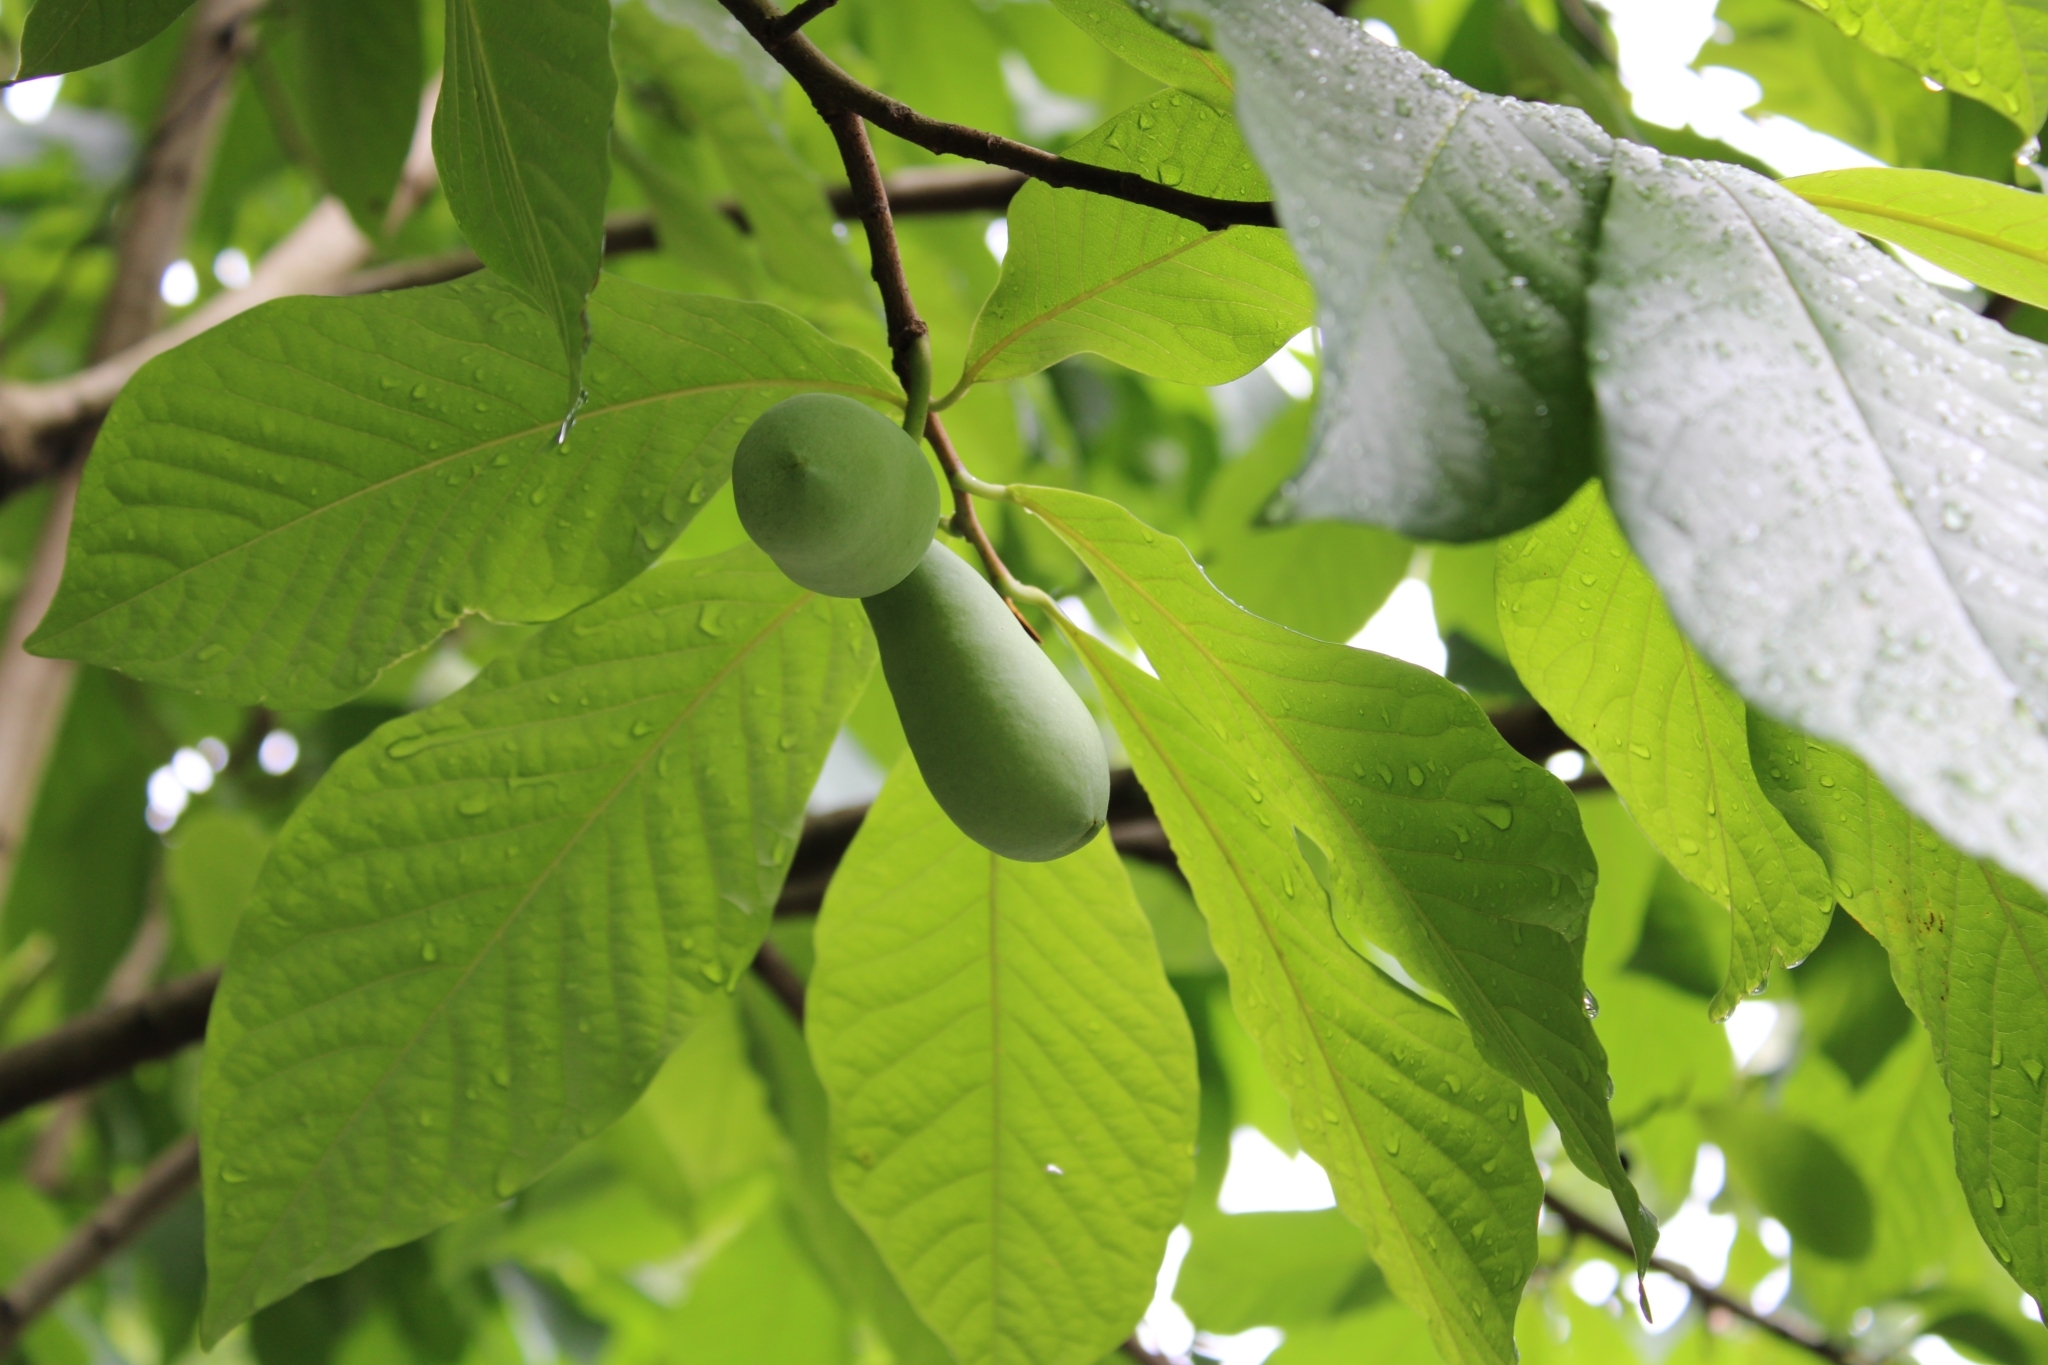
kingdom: Plantae
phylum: Tracheophyta
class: Magnoliopsida
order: Magnoliales
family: Annonaceae
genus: Asimina
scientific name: Asimina triloba
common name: Dog-banana
